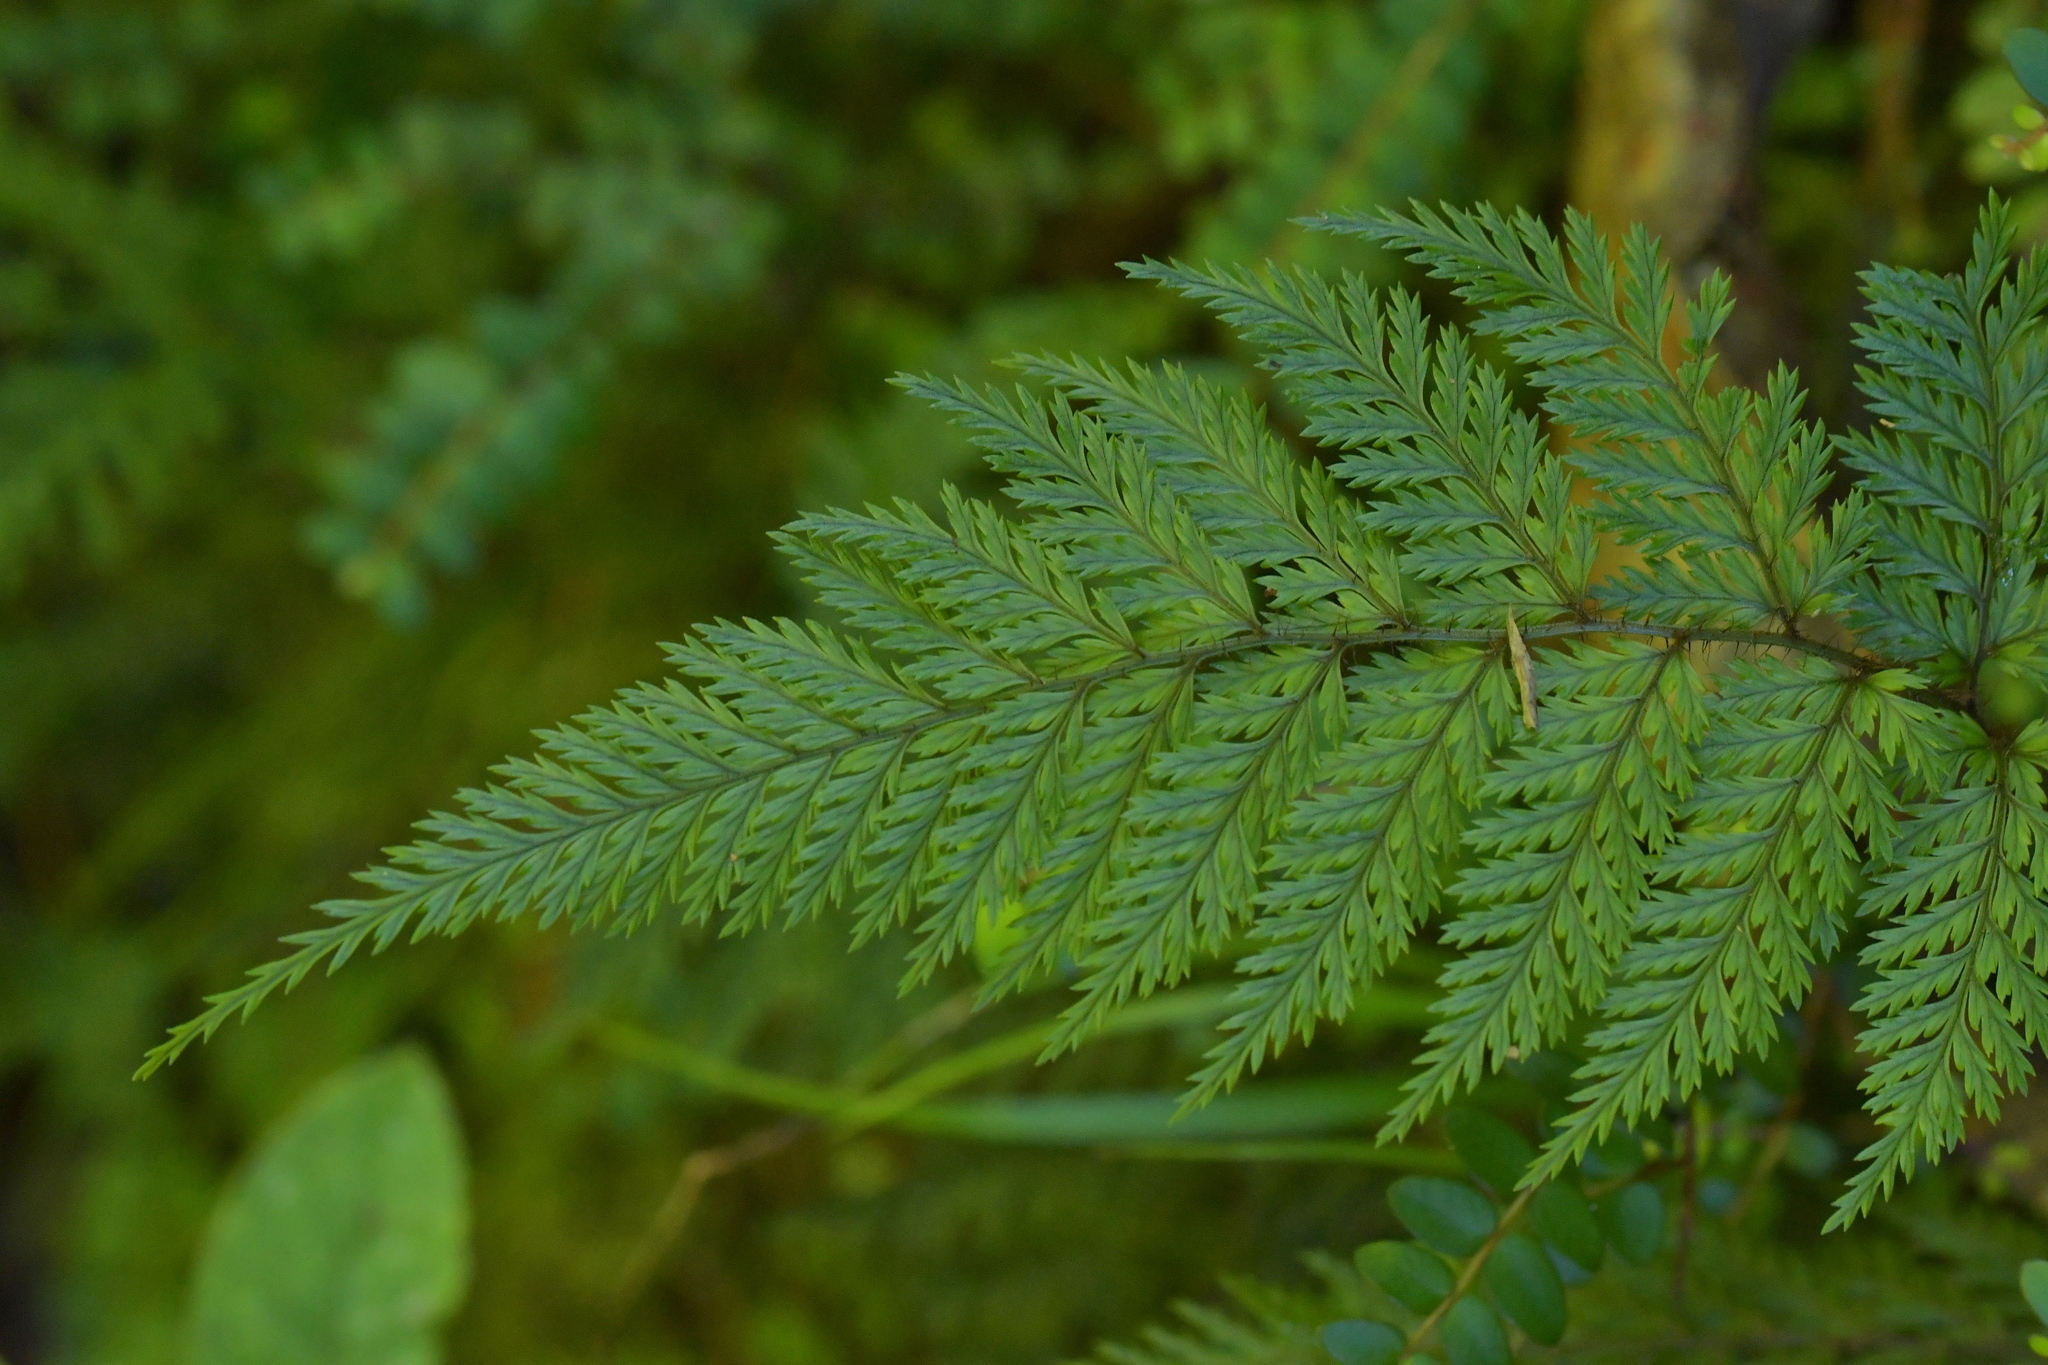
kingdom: Plantae
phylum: Tracheophyta
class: Polypodiopsida
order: Polypodiales
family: Dryopteridaceae
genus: Lastreopsis
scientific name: Lastreopsis hispida
